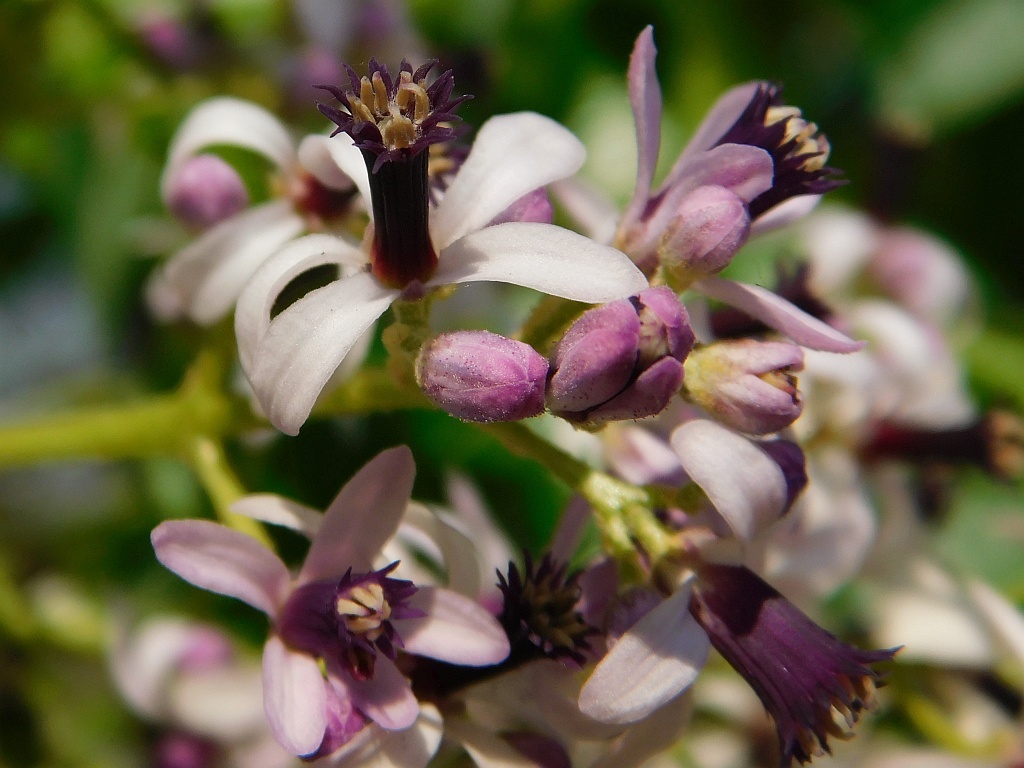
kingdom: Plantae
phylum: Tracheophyta
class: Magnoliopsida
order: Sapindales
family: Meliaceae
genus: Melia
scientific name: Melia azedarach
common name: Chinaberrytree
